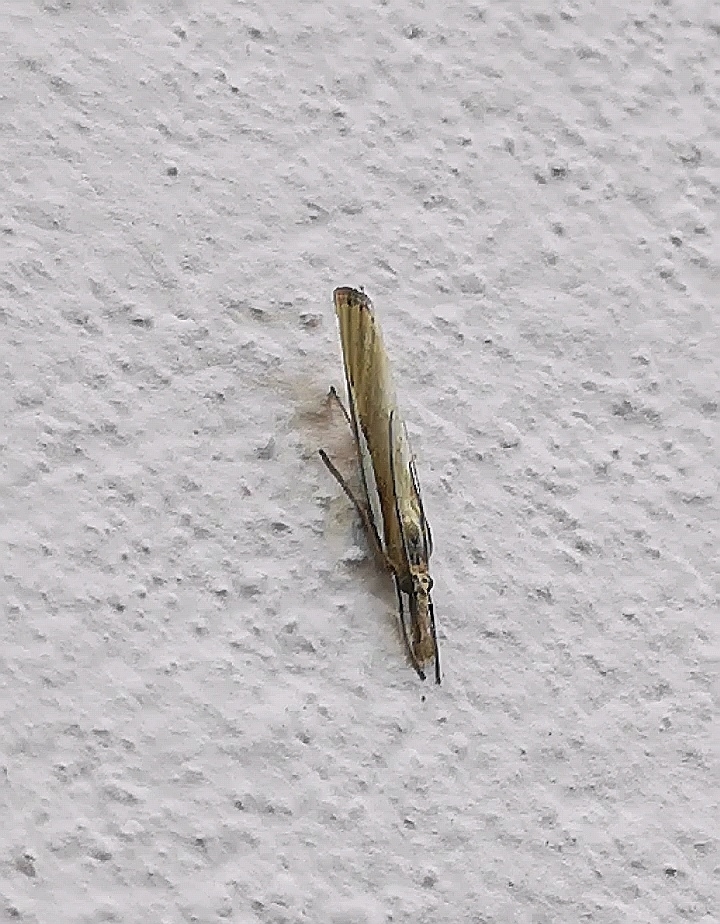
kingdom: Animalia
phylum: Arthropoda
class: Insecta
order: Lepidoptera
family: Crambidae
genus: Agriphila
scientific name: Agriphila tristellus
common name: Common grass-veneer
